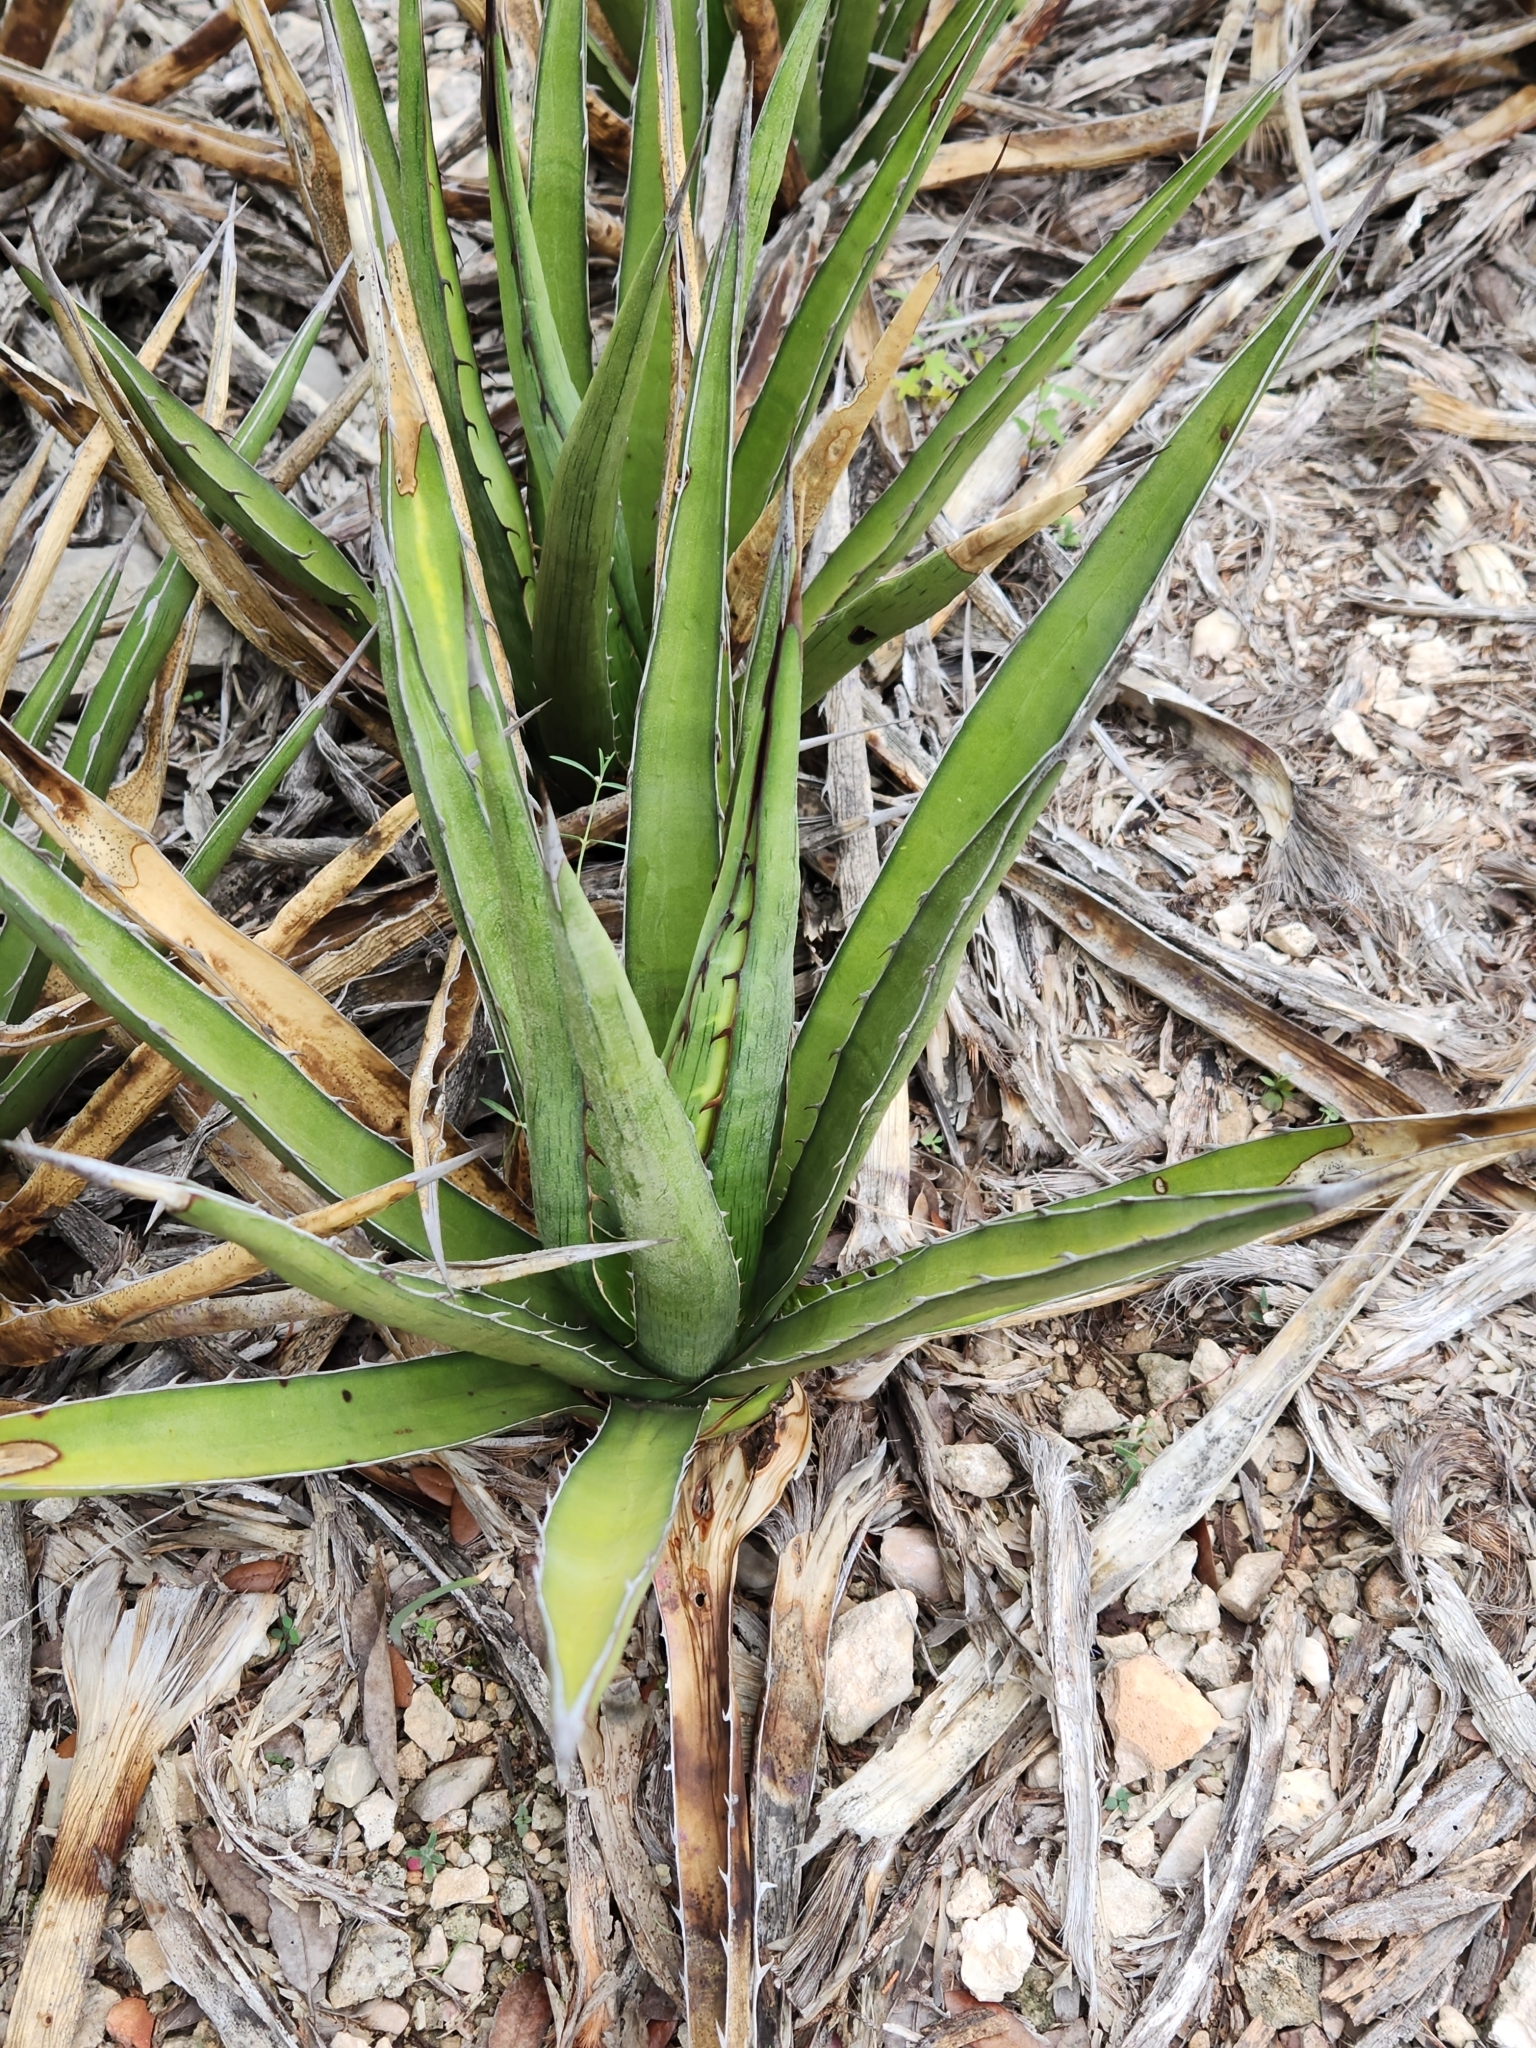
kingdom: Plantae
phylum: Tracheophyta
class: Liliopsida
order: Asparagales
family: Asparagaceae
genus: Agave
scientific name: Agave lechuguilla
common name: Lecheguilla agave
